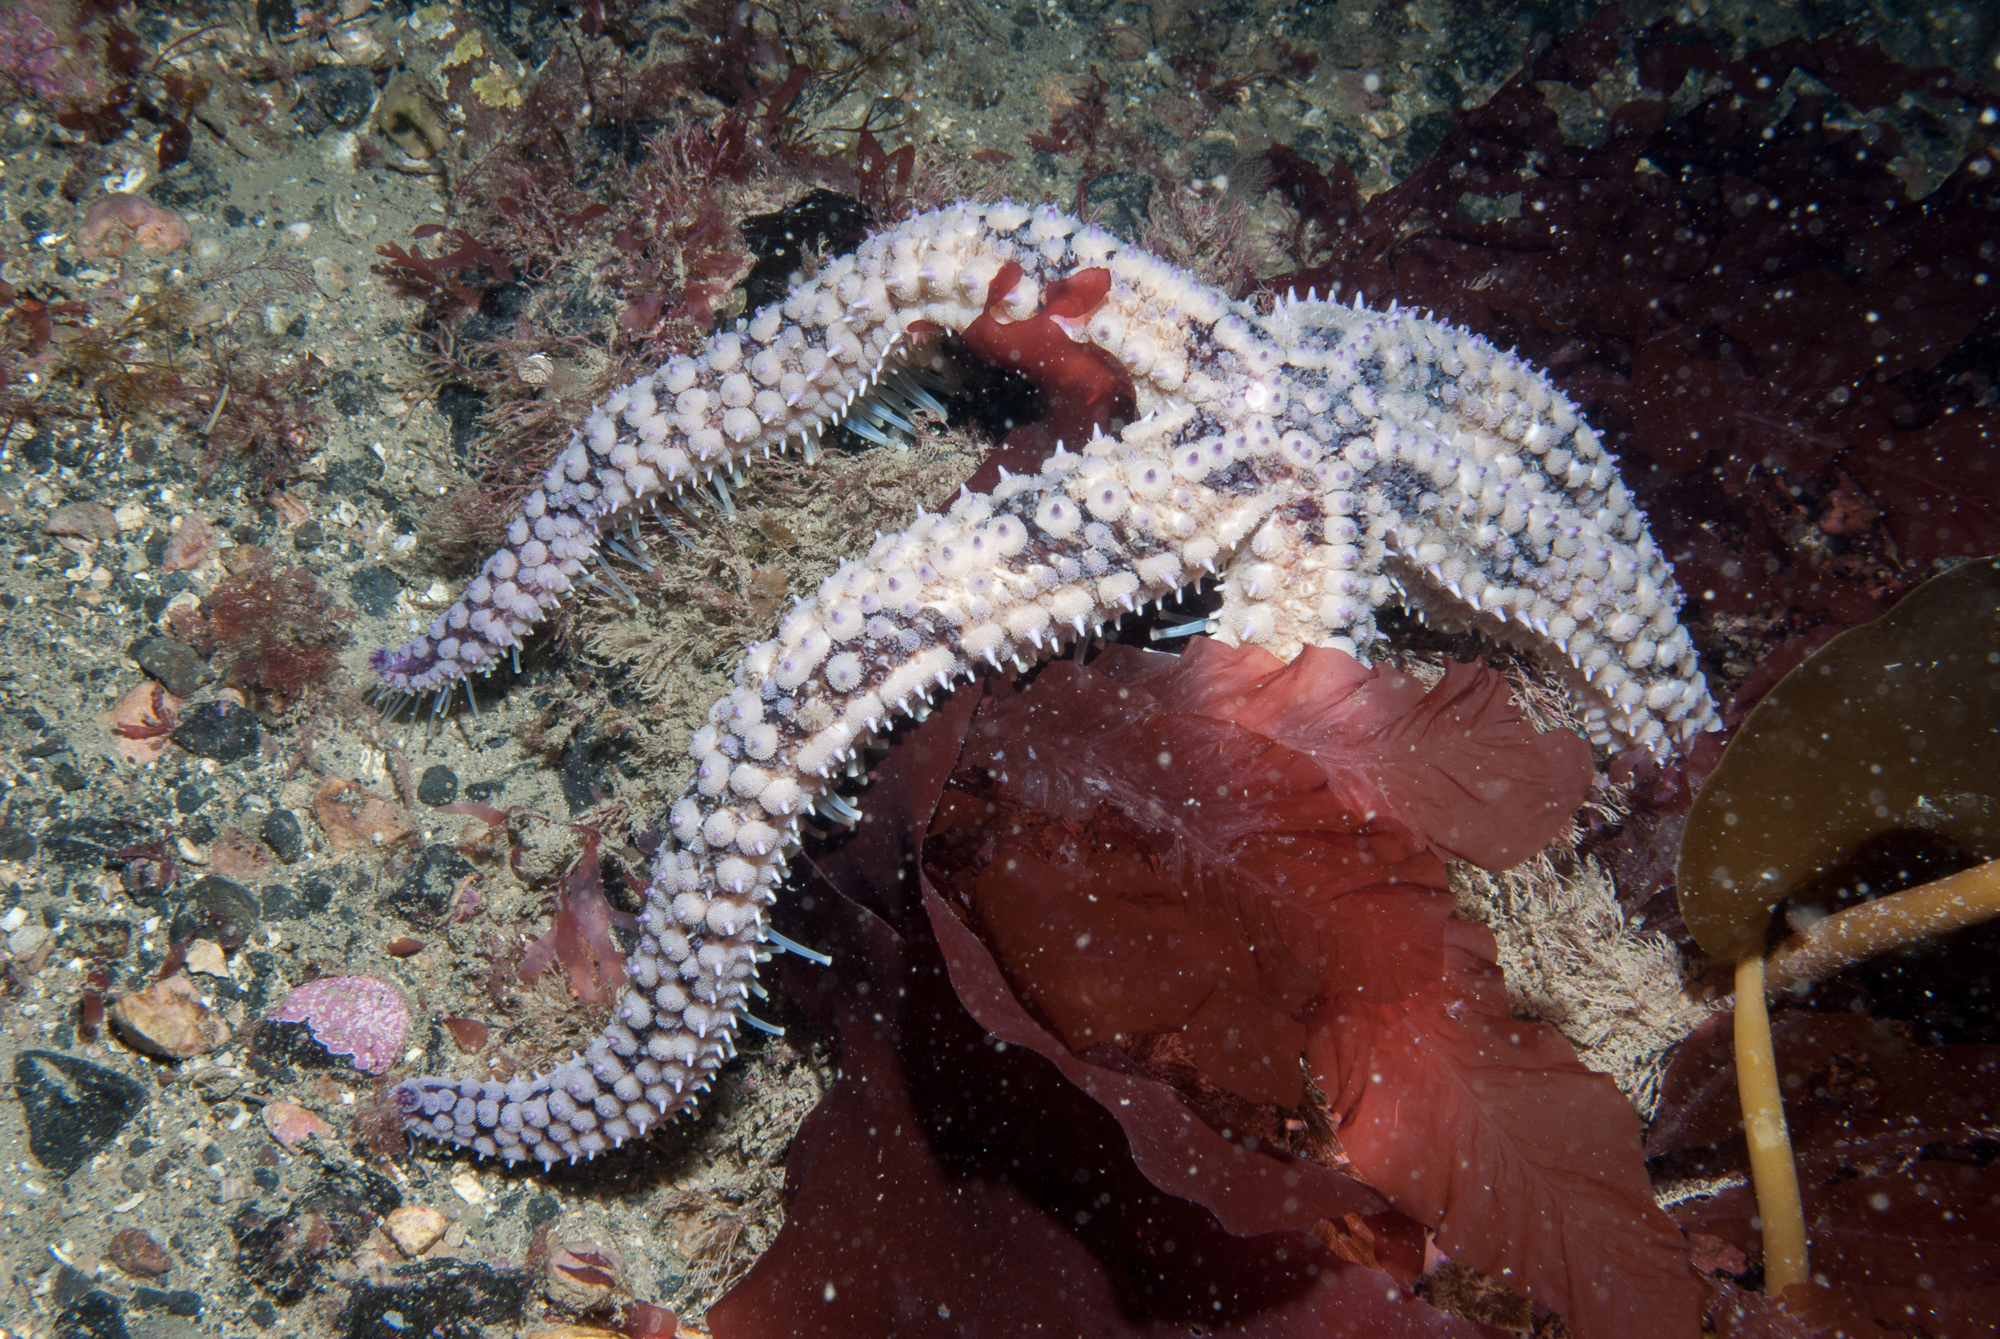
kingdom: Animalia
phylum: Echinodermata
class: Asteroidea
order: Forcipulatida
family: Asteriidae
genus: Marthasterias
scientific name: Marthasterias glacialis
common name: Spiny starfish
